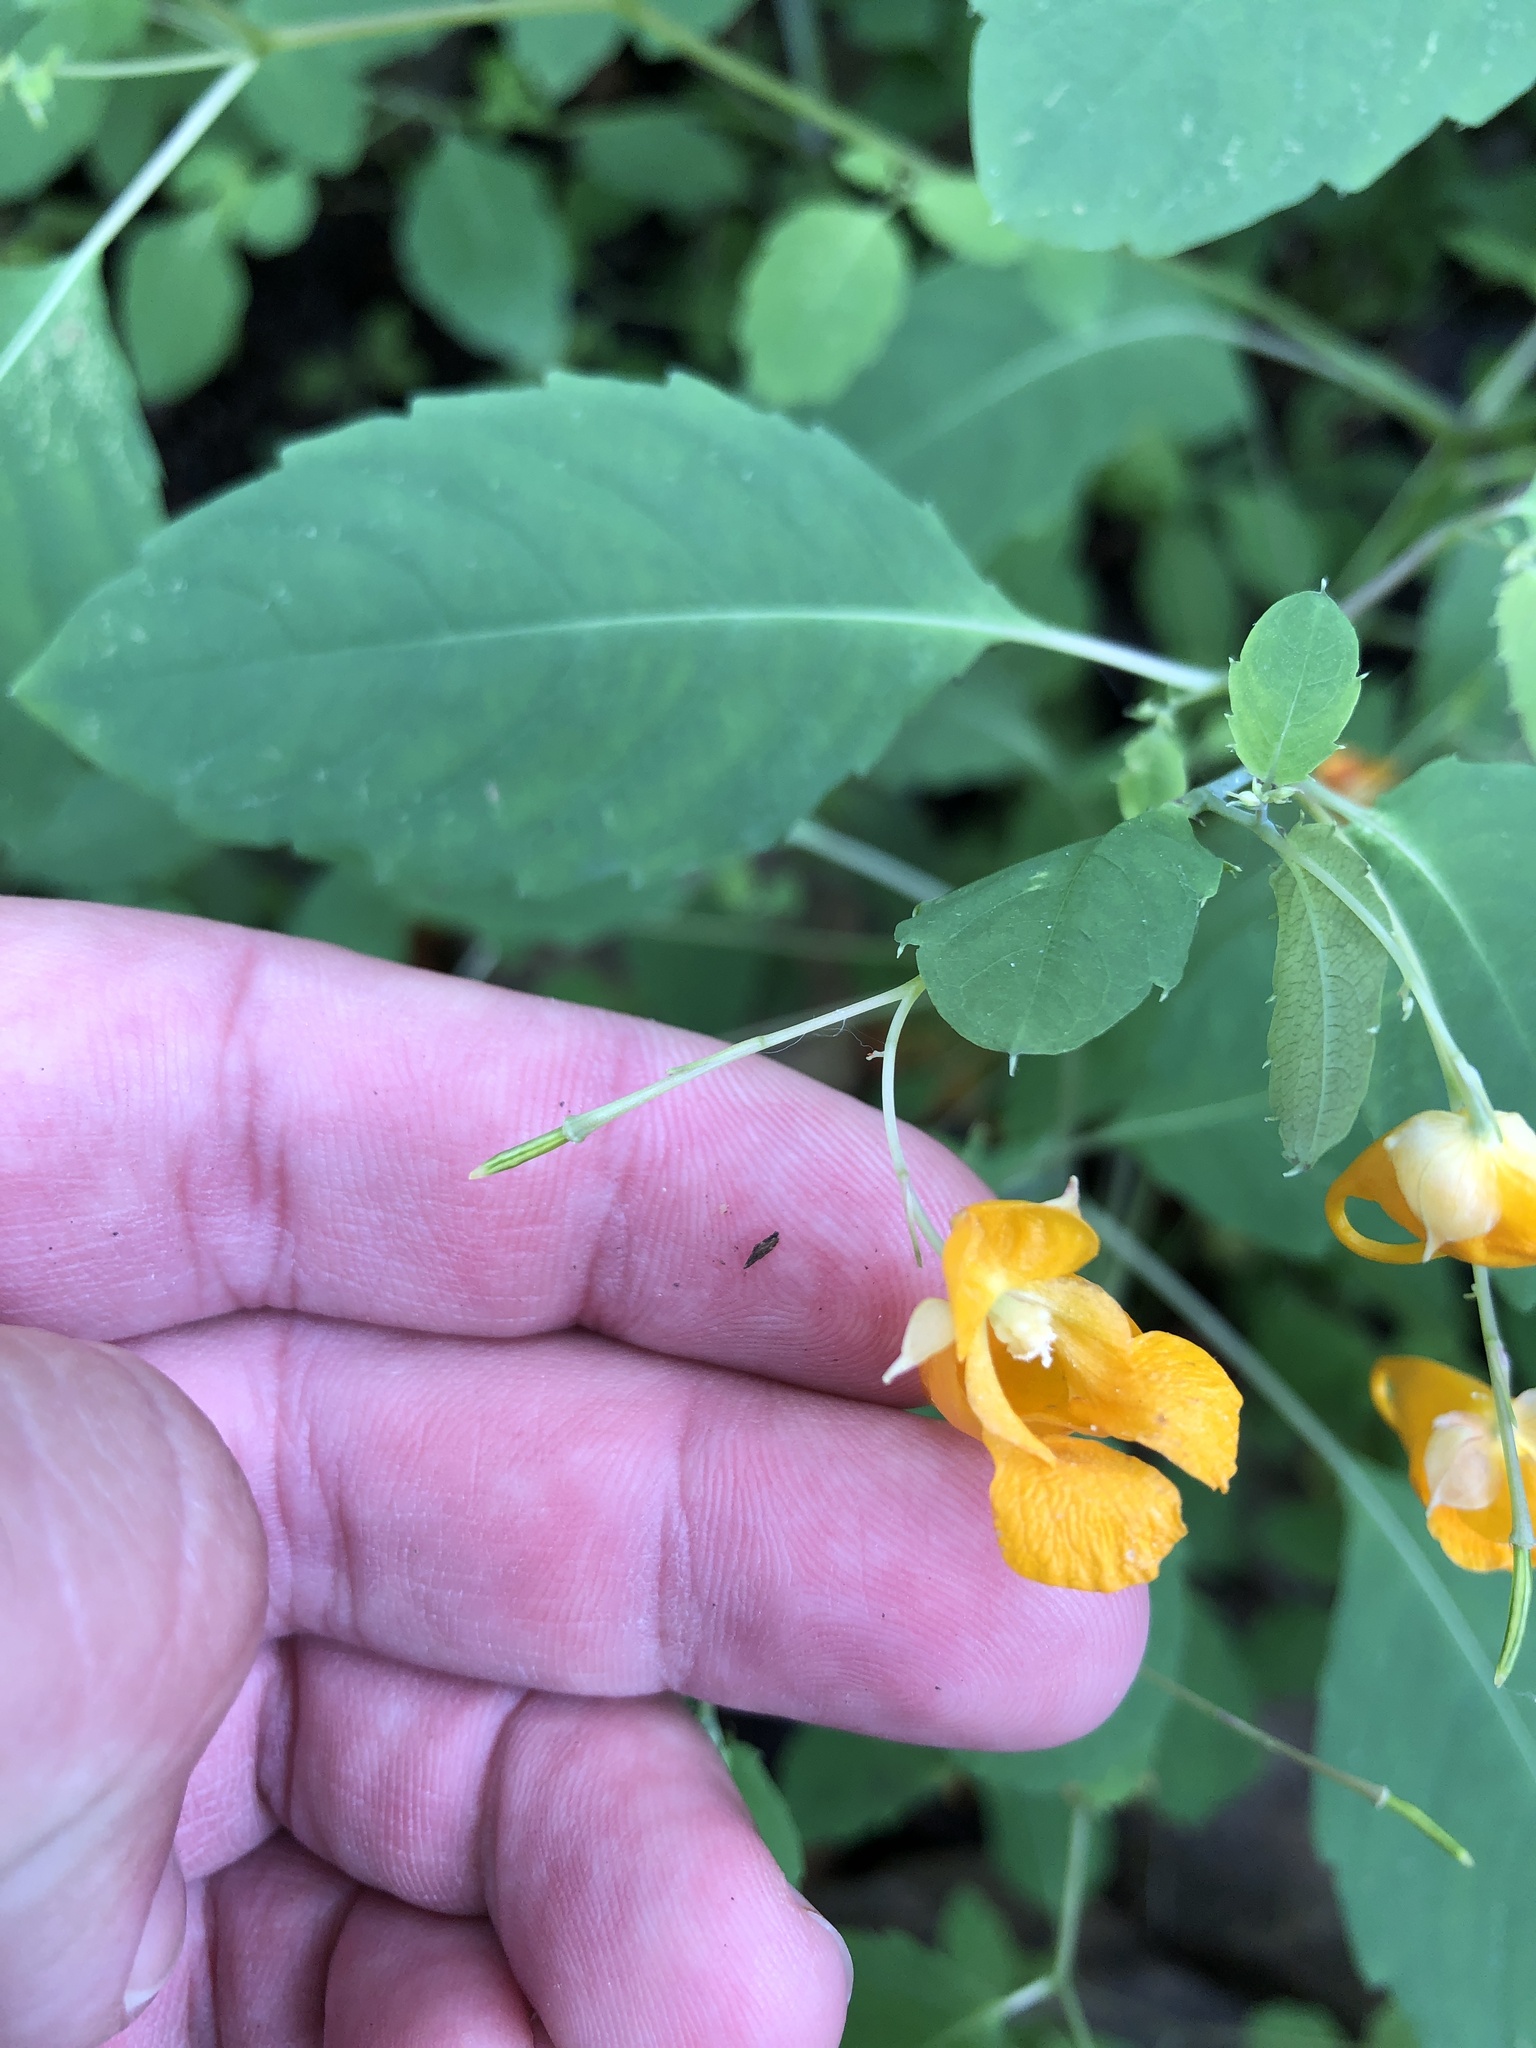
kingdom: Plantae
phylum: Tracheophyta
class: Magnoliopsida
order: Ericales
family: Balsaminaceae
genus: Impatiens
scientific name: Impatiens capensis
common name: Orange balsam
